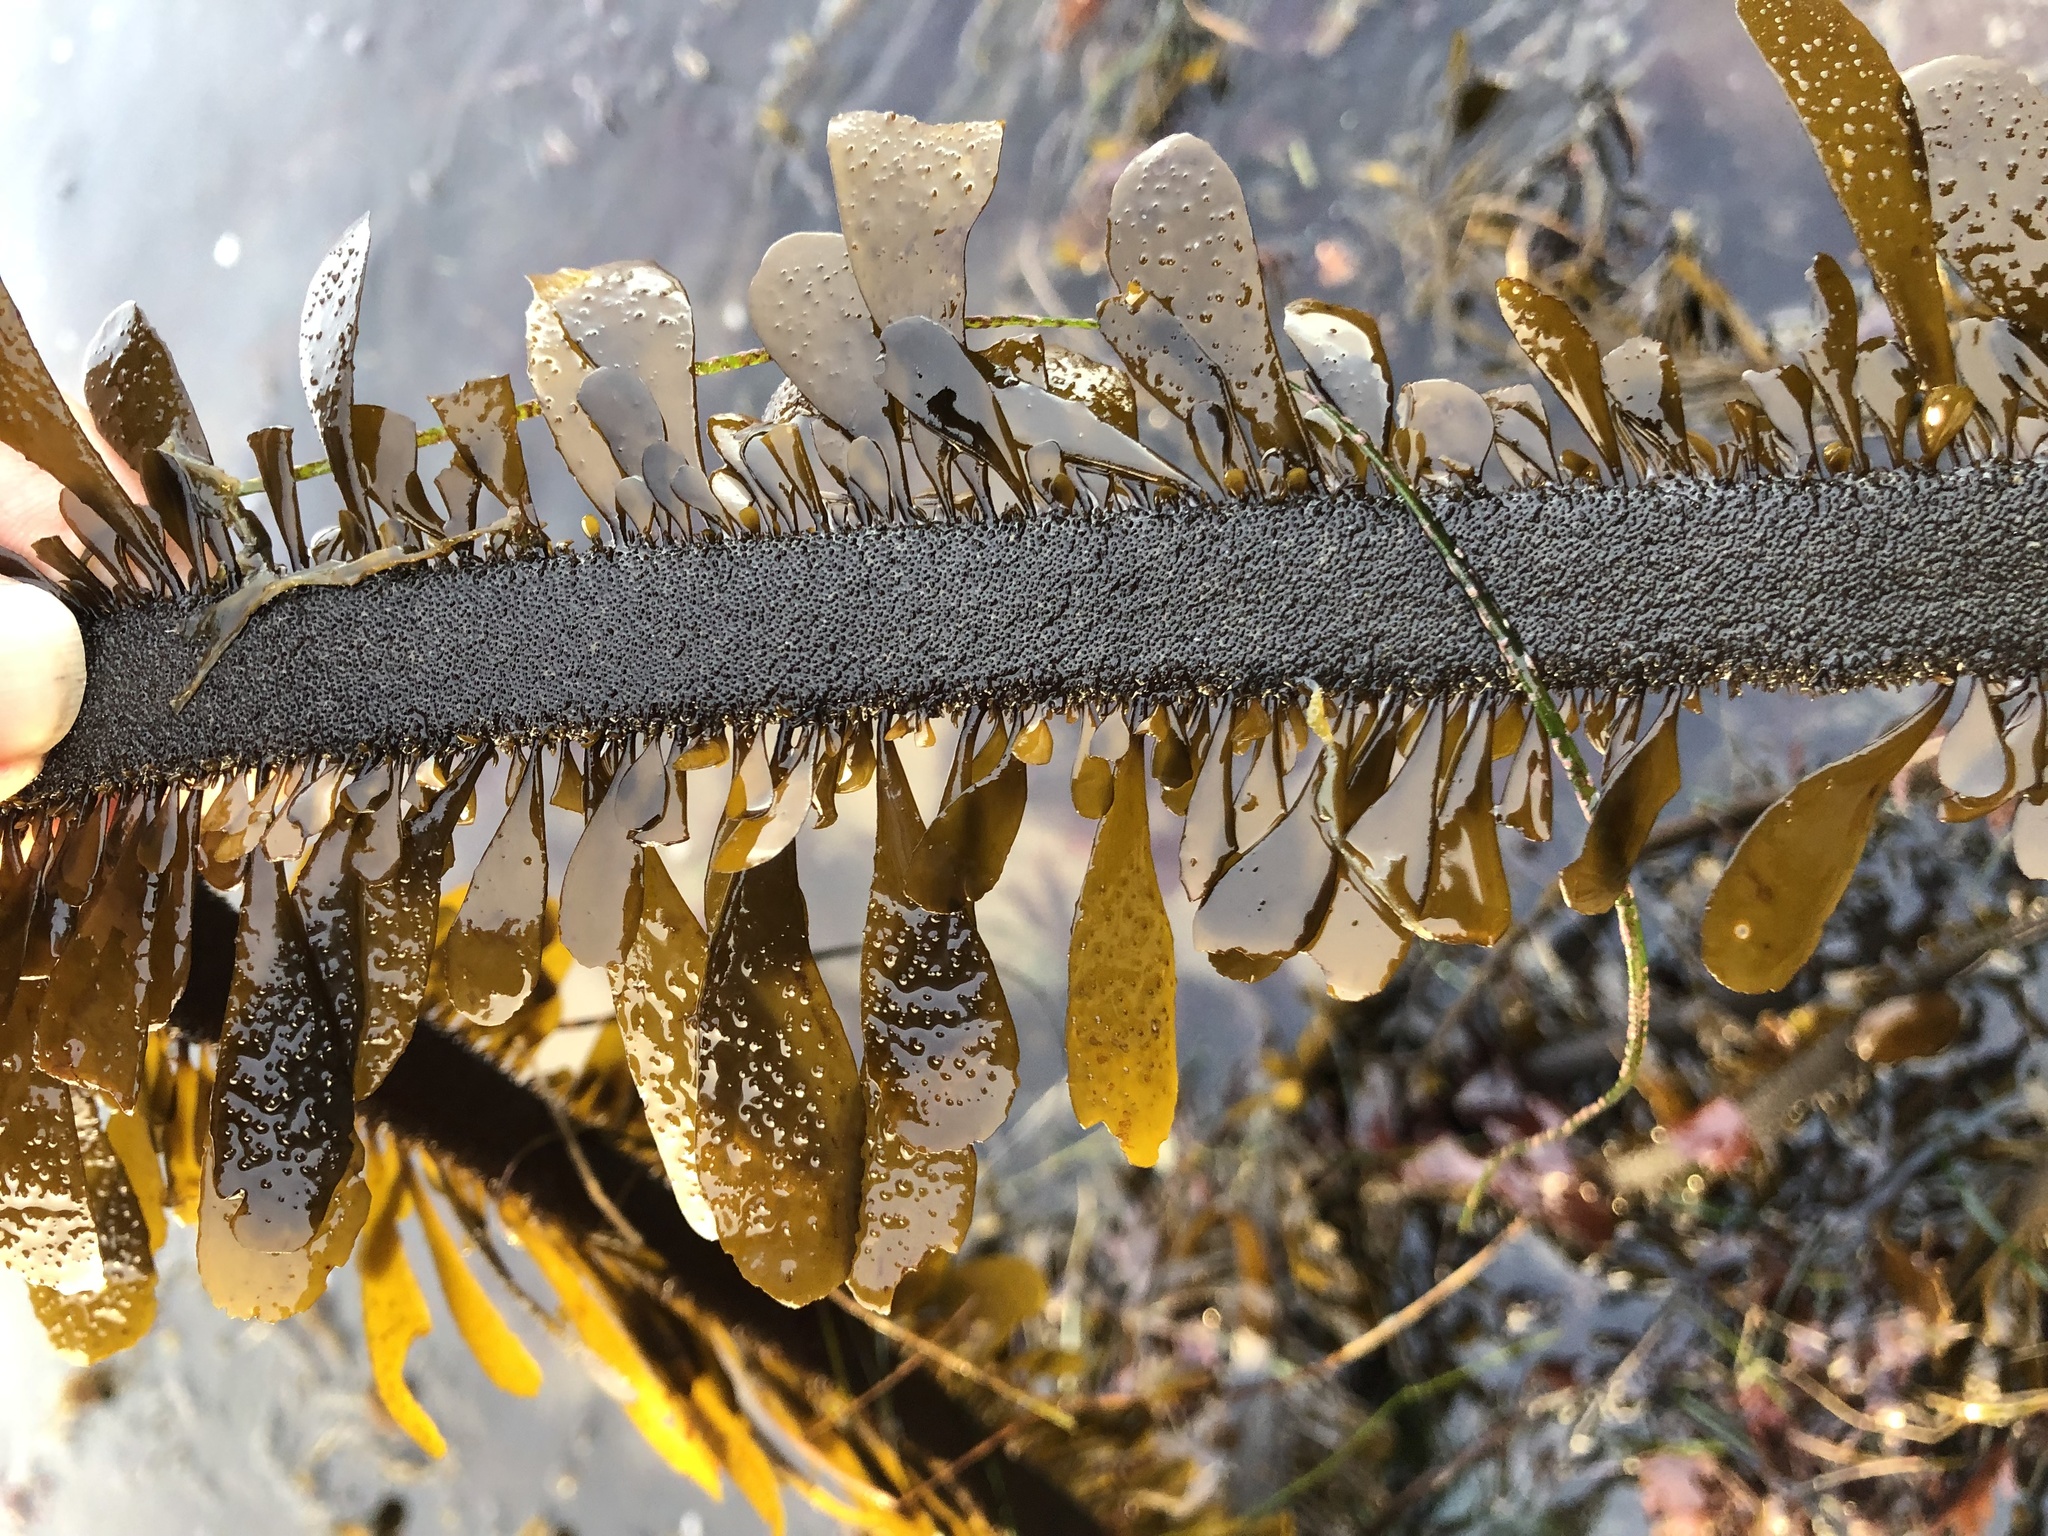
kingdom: Chromista
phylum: Ochrophyta
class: Phaeophyceae
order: Laminariales
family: Lessoniaceae
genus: Egregia
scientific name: Egregia menziesii
